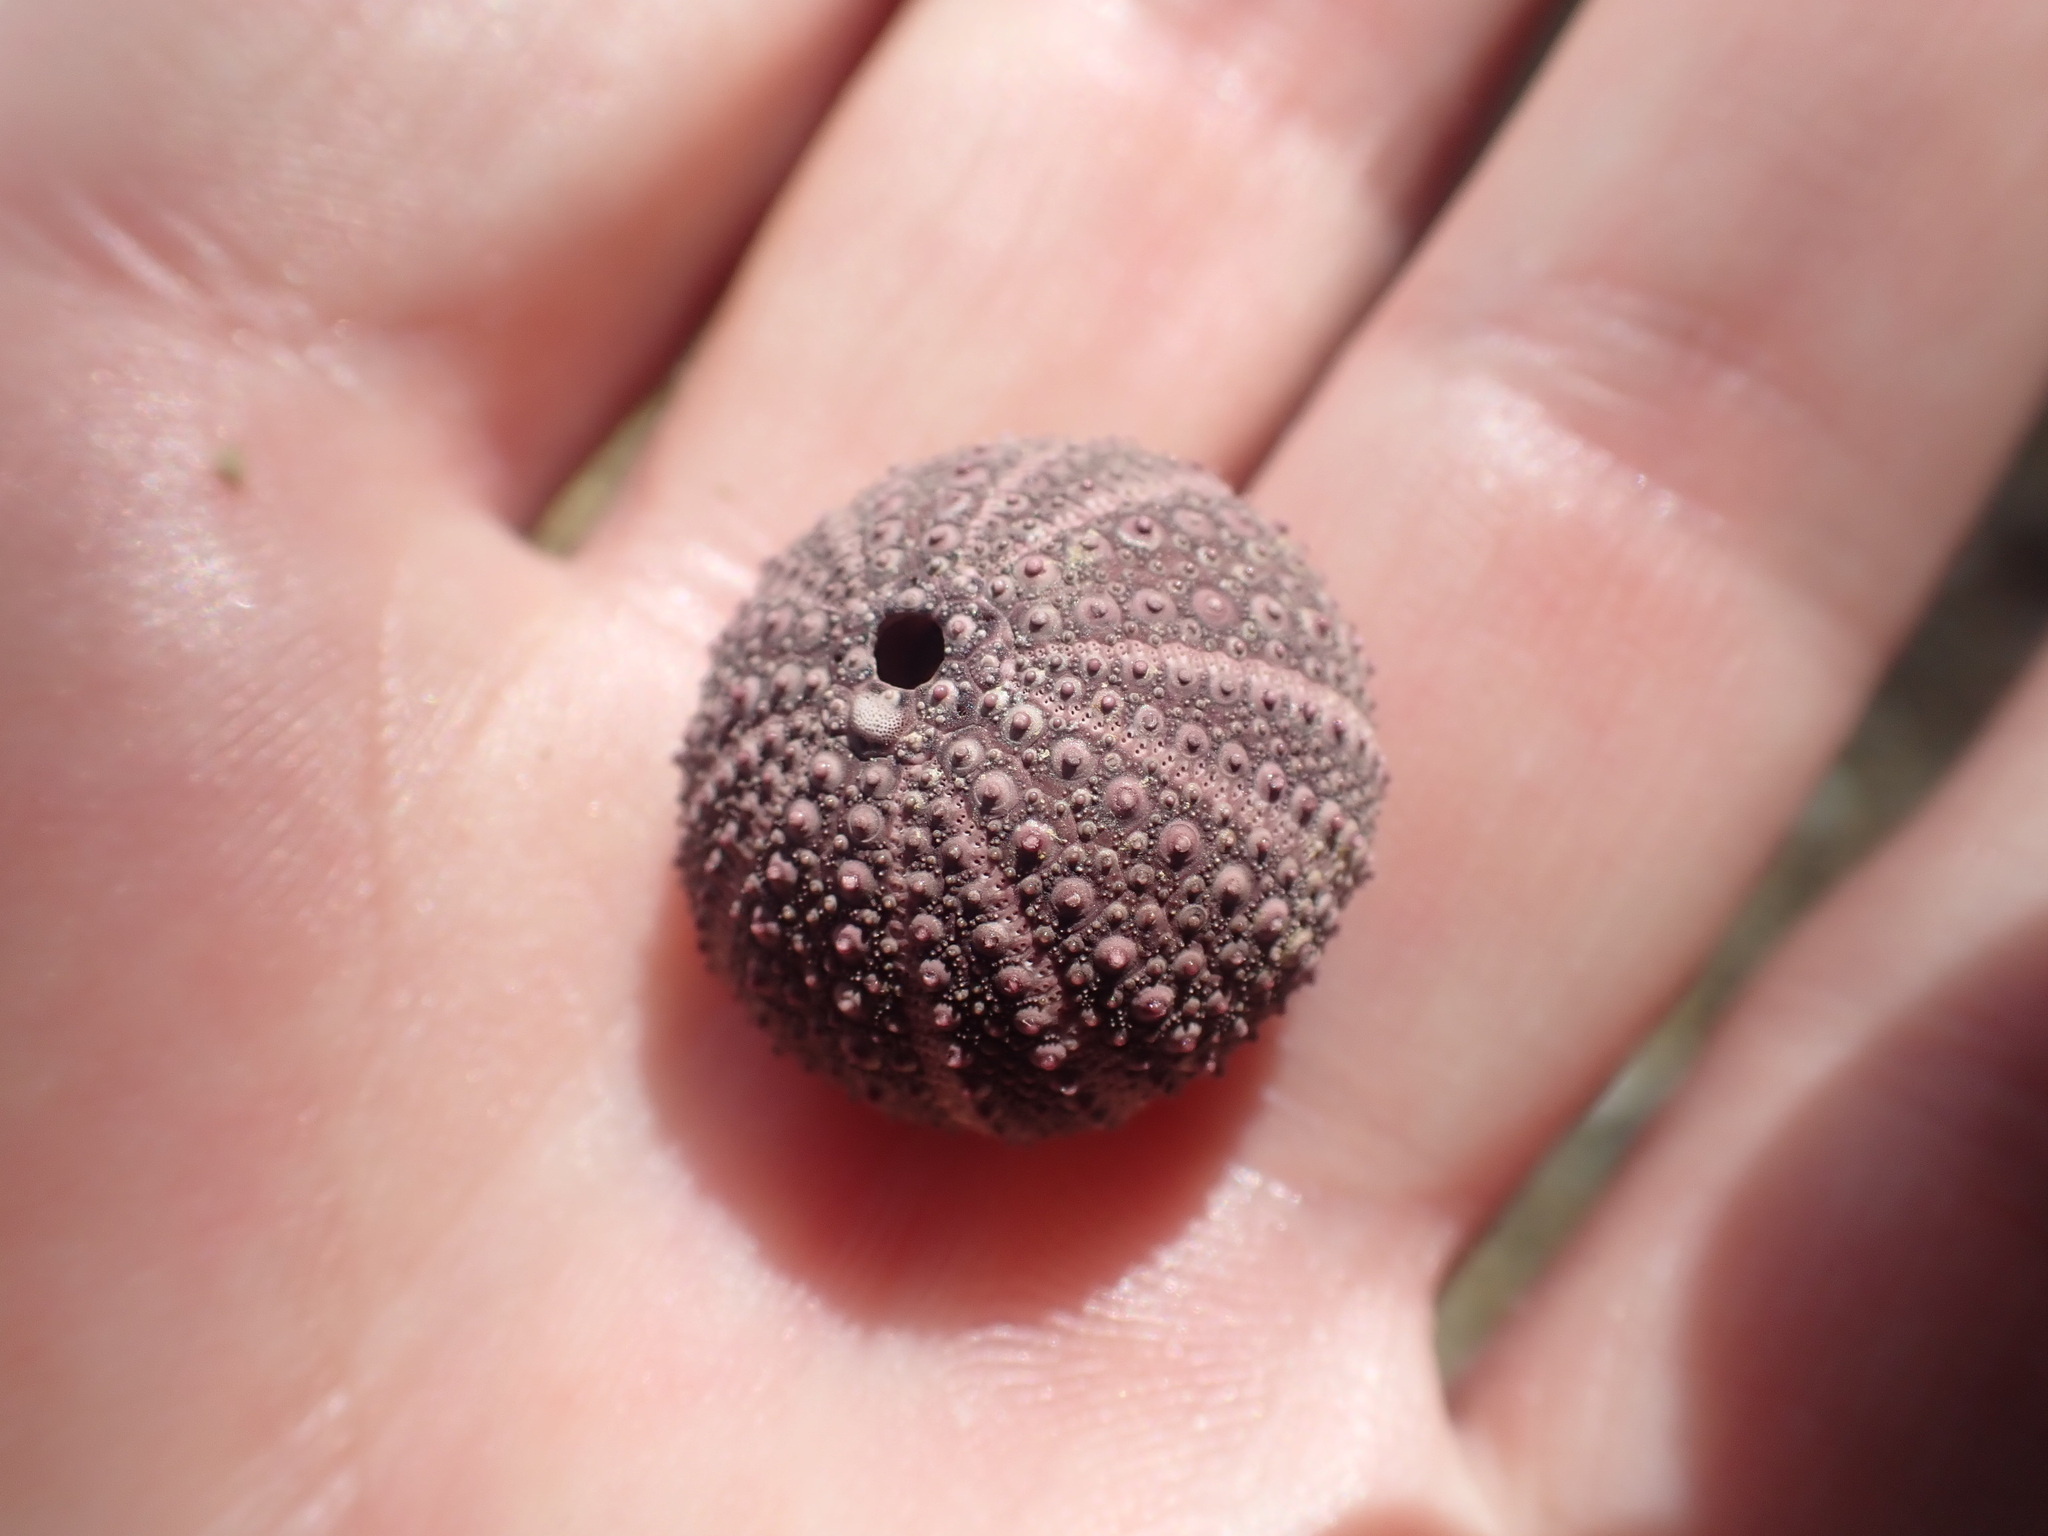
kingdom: Animalia
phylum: Echinodermata
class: Echinoidea
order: Camarodonta
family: Echinometridae
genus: Evechinus
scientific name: Evechinus chloroticus
